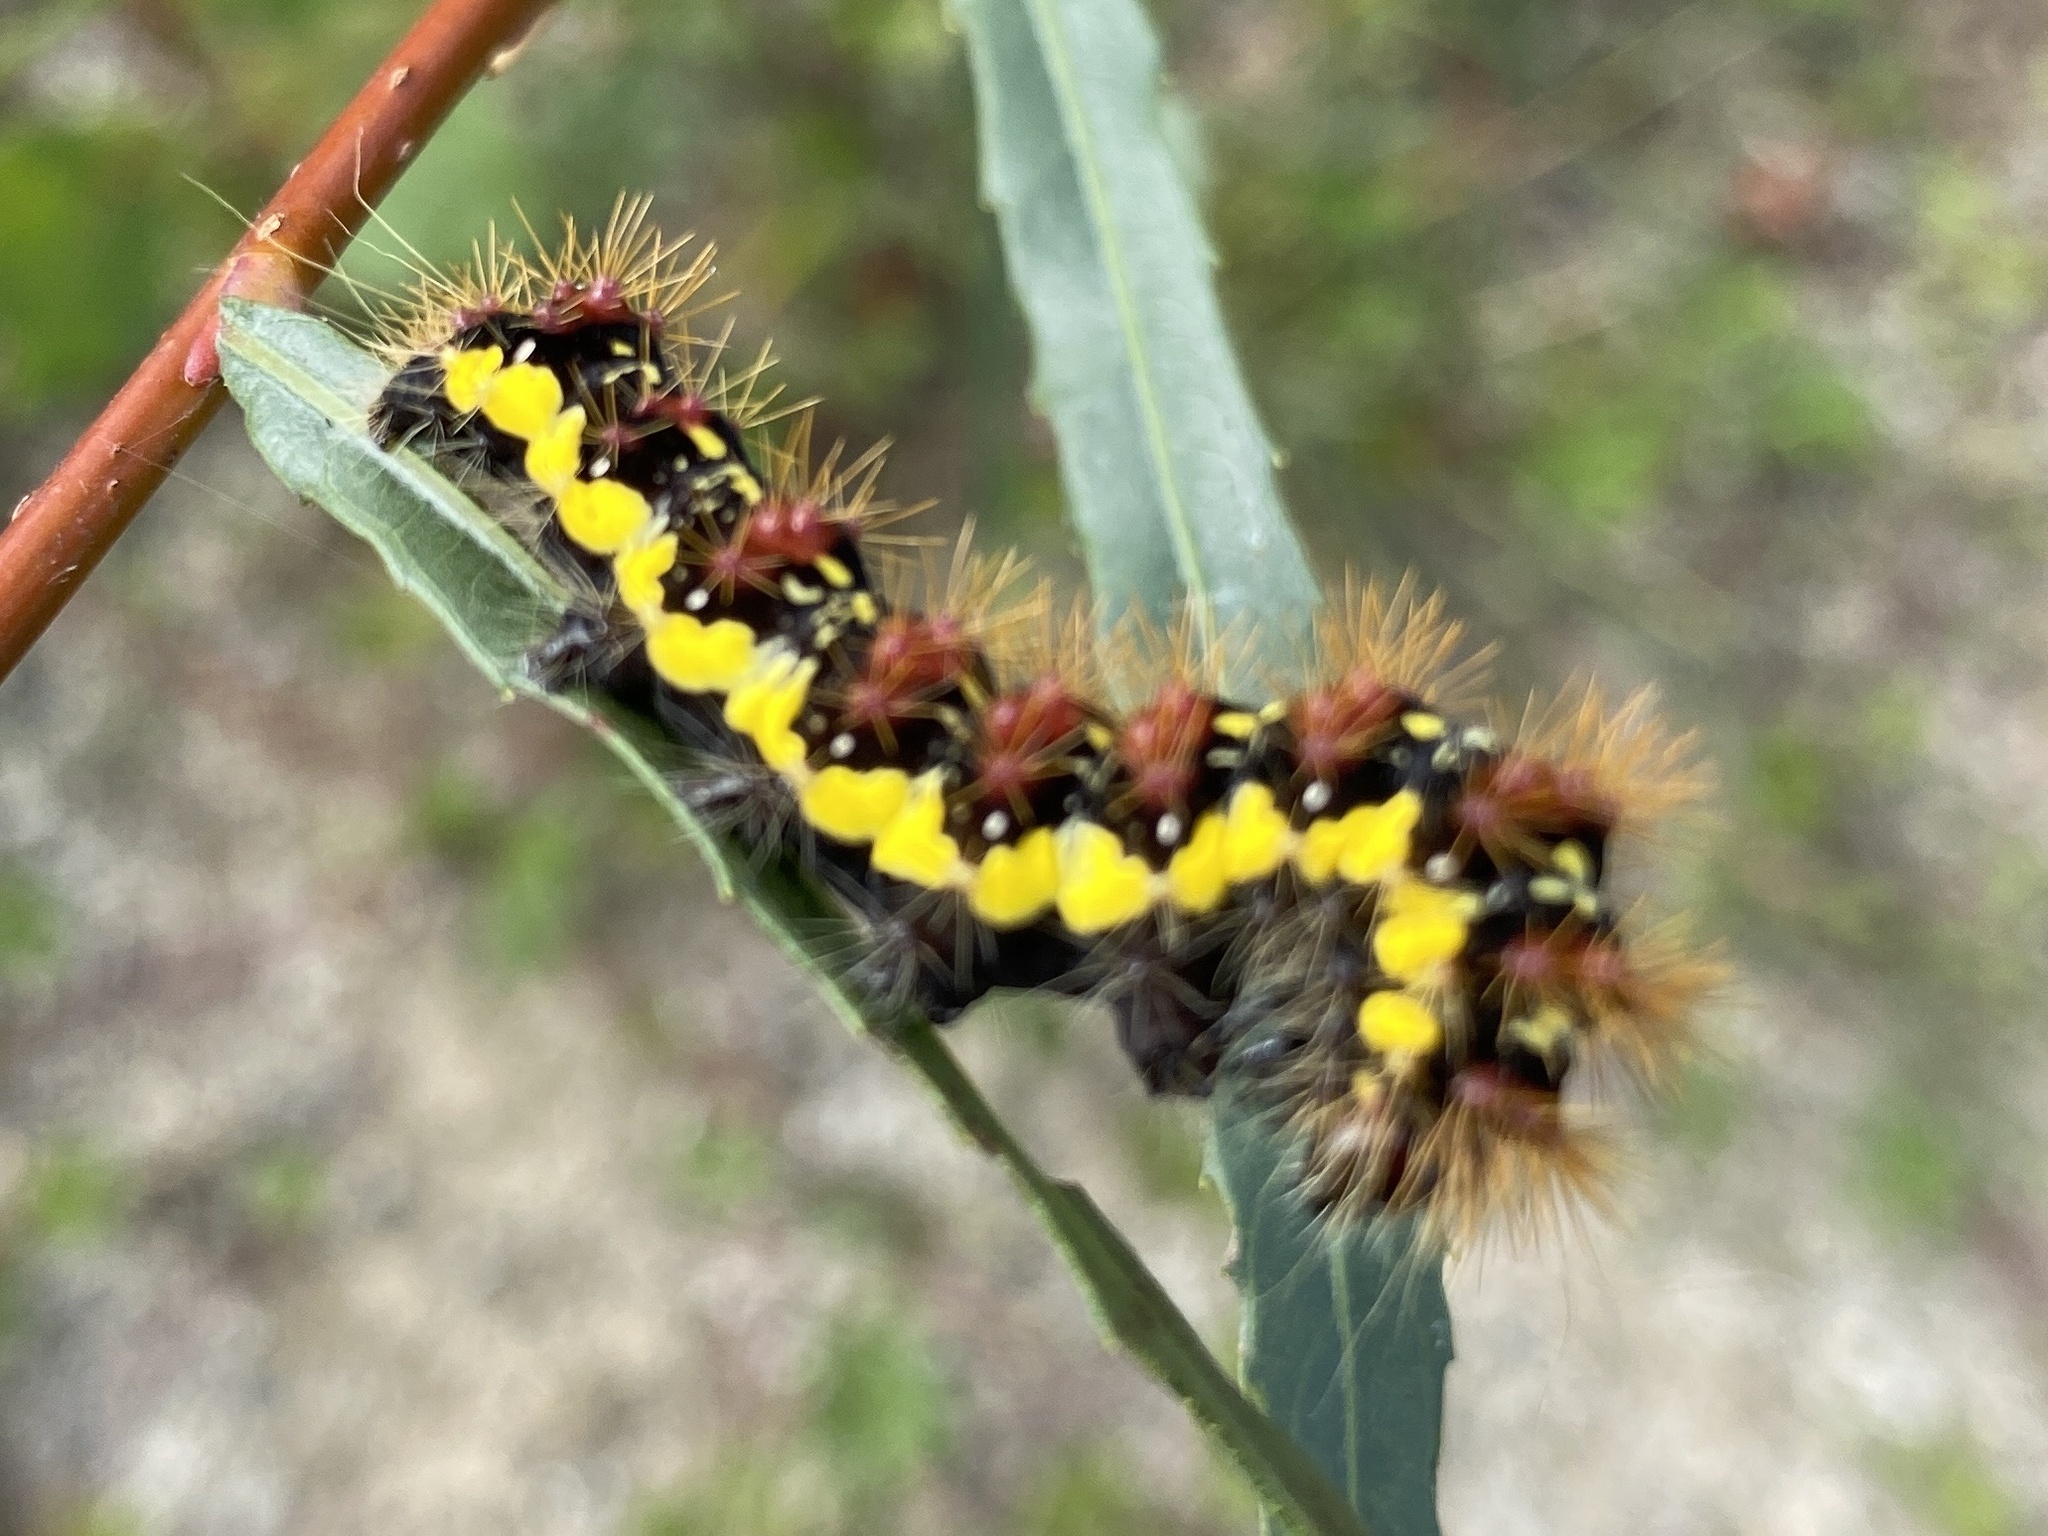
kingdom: Animalia
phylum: Arthropoda
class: Insecta
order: Lepidoptera
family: Noctuidae
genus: Acronicta
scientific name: Acronicta oblinita
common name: Smeared dagger
